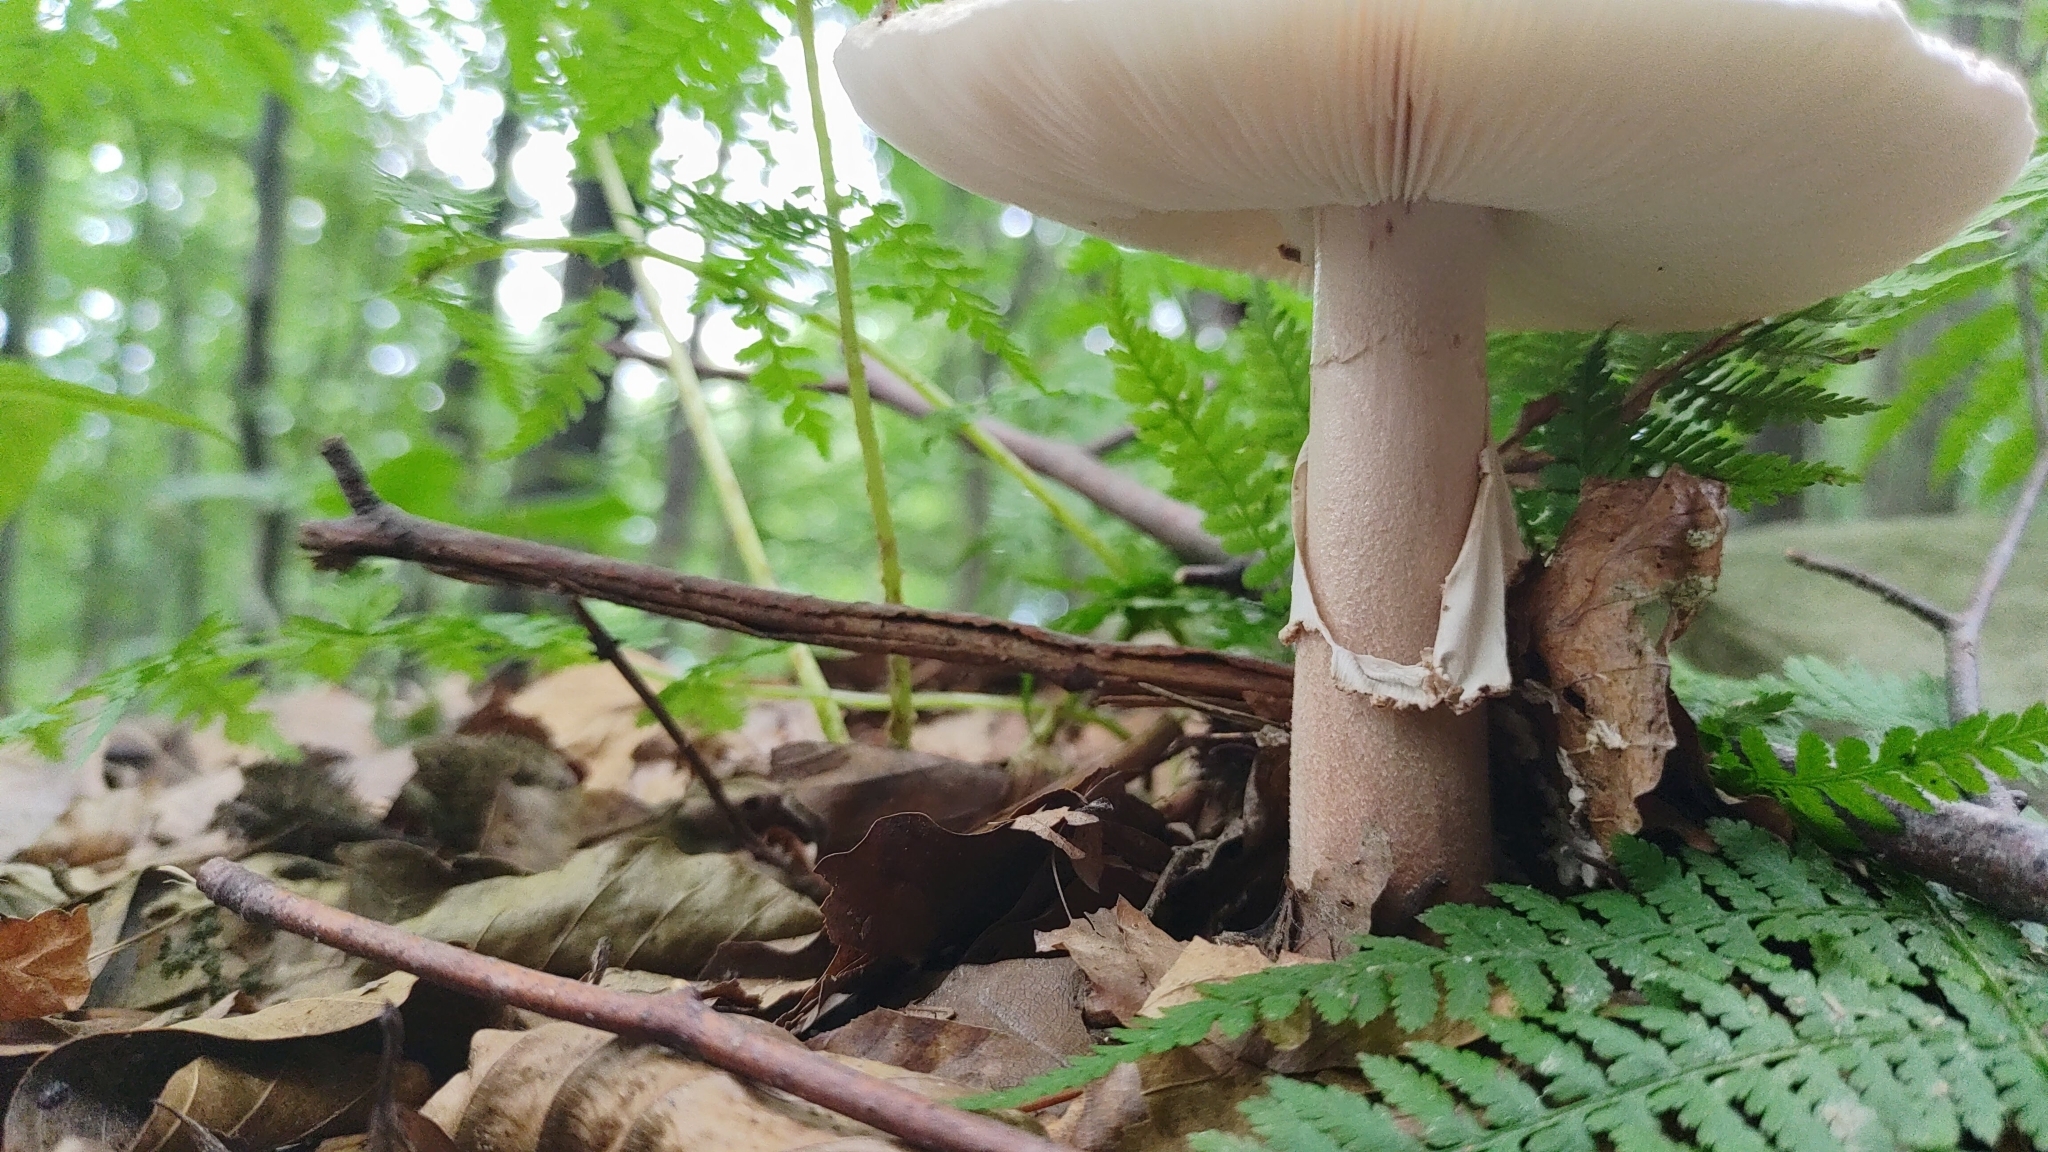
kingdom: Fungi
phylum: Basidiomycota
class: Agaricomycetes
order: Agaricales
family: Amanitaceae
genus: Amanita
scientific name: Amanita rubescens
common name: Blusher
